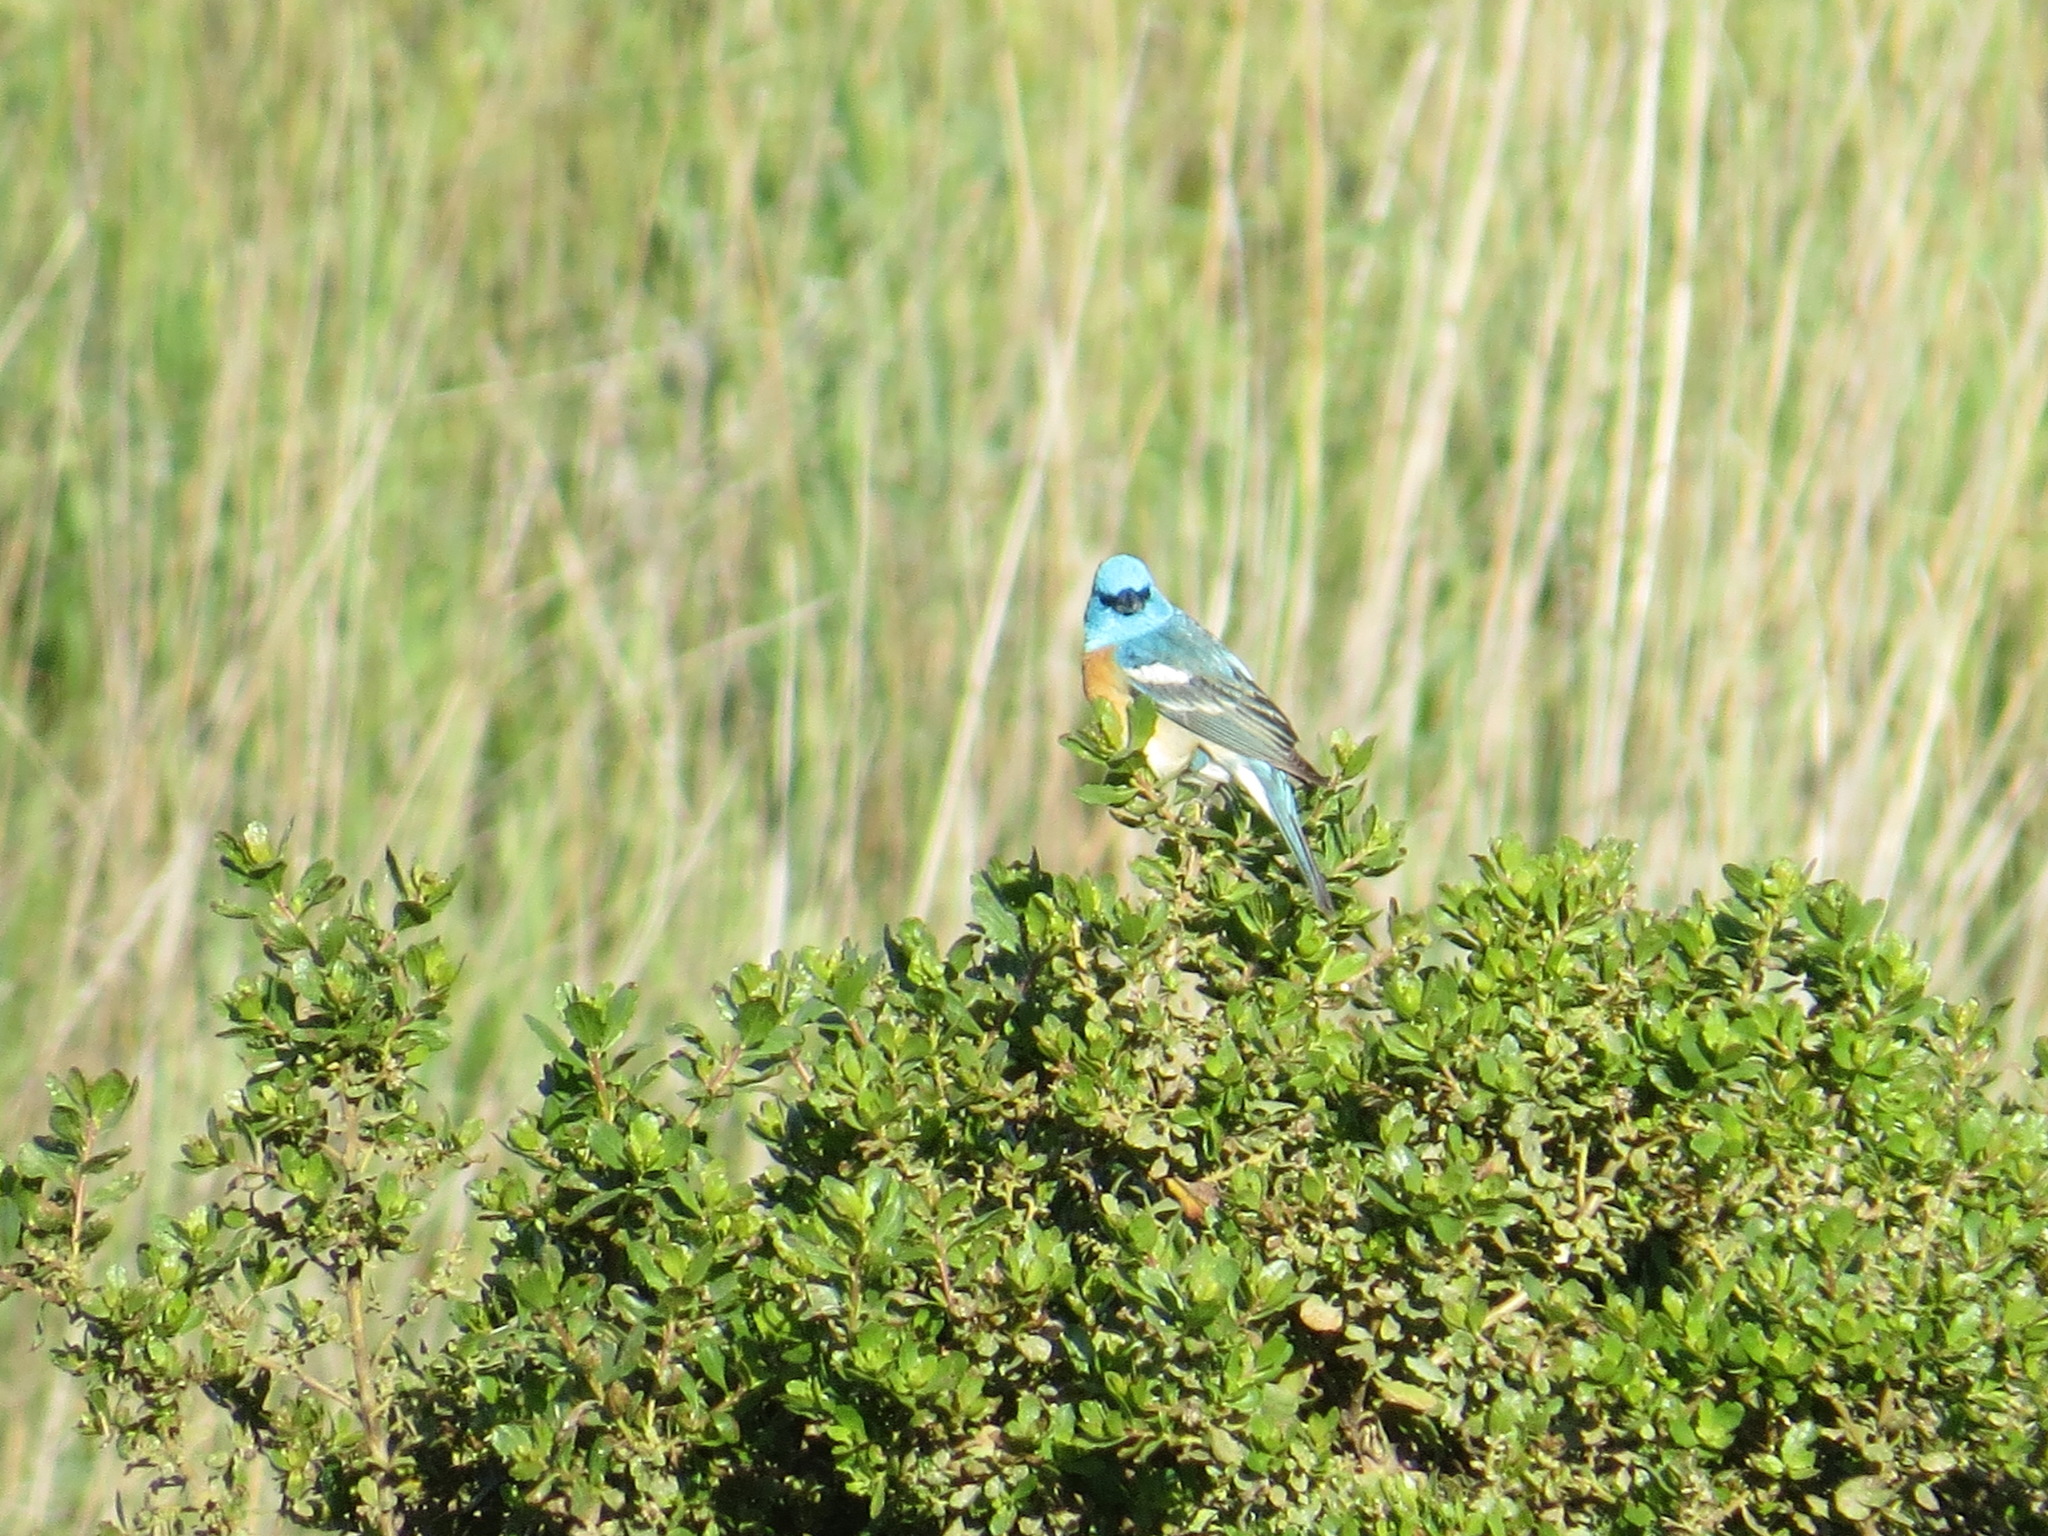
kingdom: Animalia
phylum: Chordata
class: Aves
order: Passeriformes
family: Cardinalidae
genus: Passerina
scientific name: Passerina amoena
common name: Lazuli bunting
